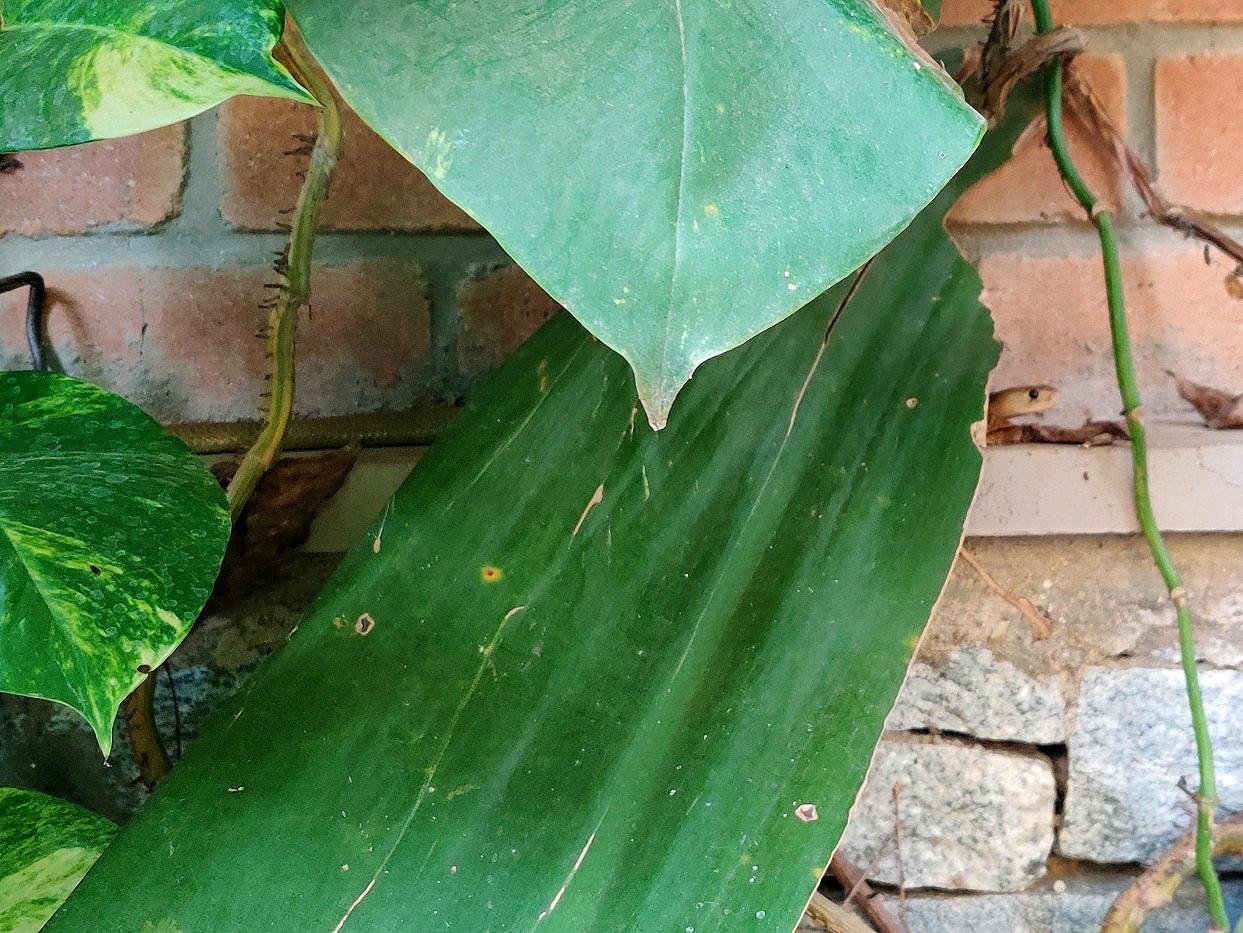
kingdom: Animalia
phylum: Chordata
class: Squamata
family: Elapidae
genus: Naja
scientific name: Naja naja
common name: Indian cobra
